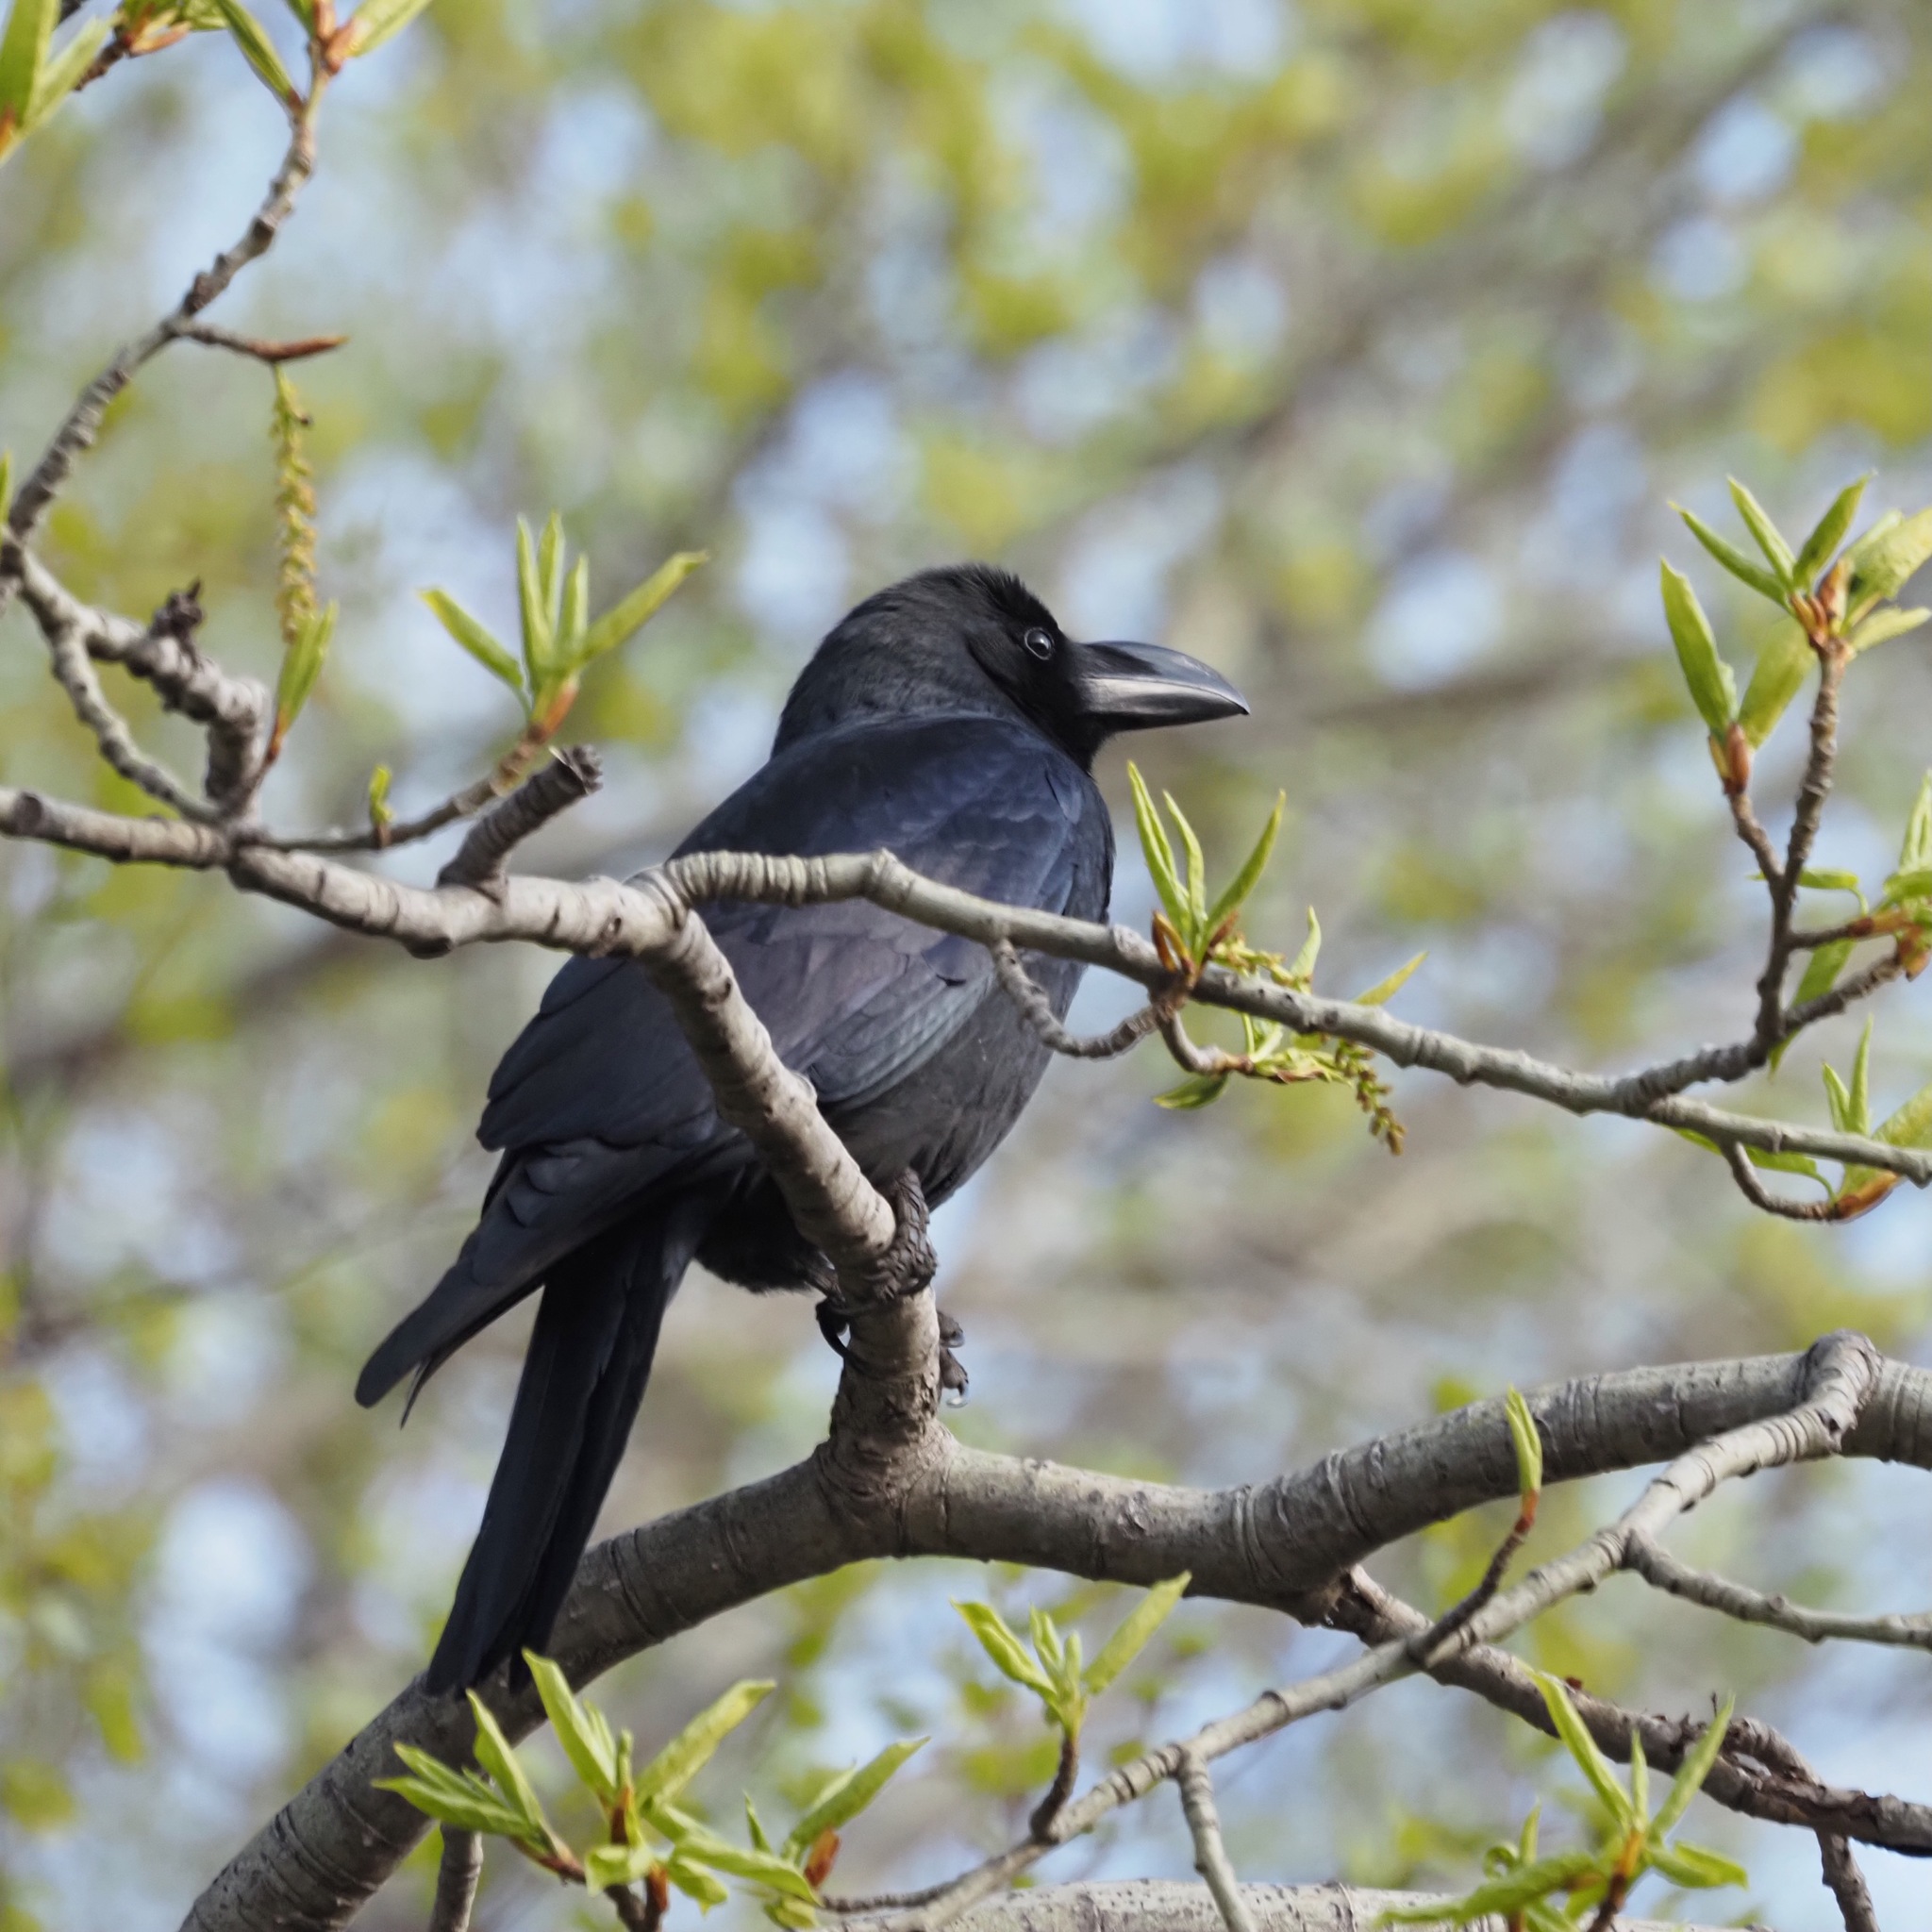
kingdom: Animalia
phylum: Chordata
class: Aves
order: Passeriformes
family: Corvidae
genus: Corvus
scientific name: Corvus macrorhynchos
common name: Large-billed crow
